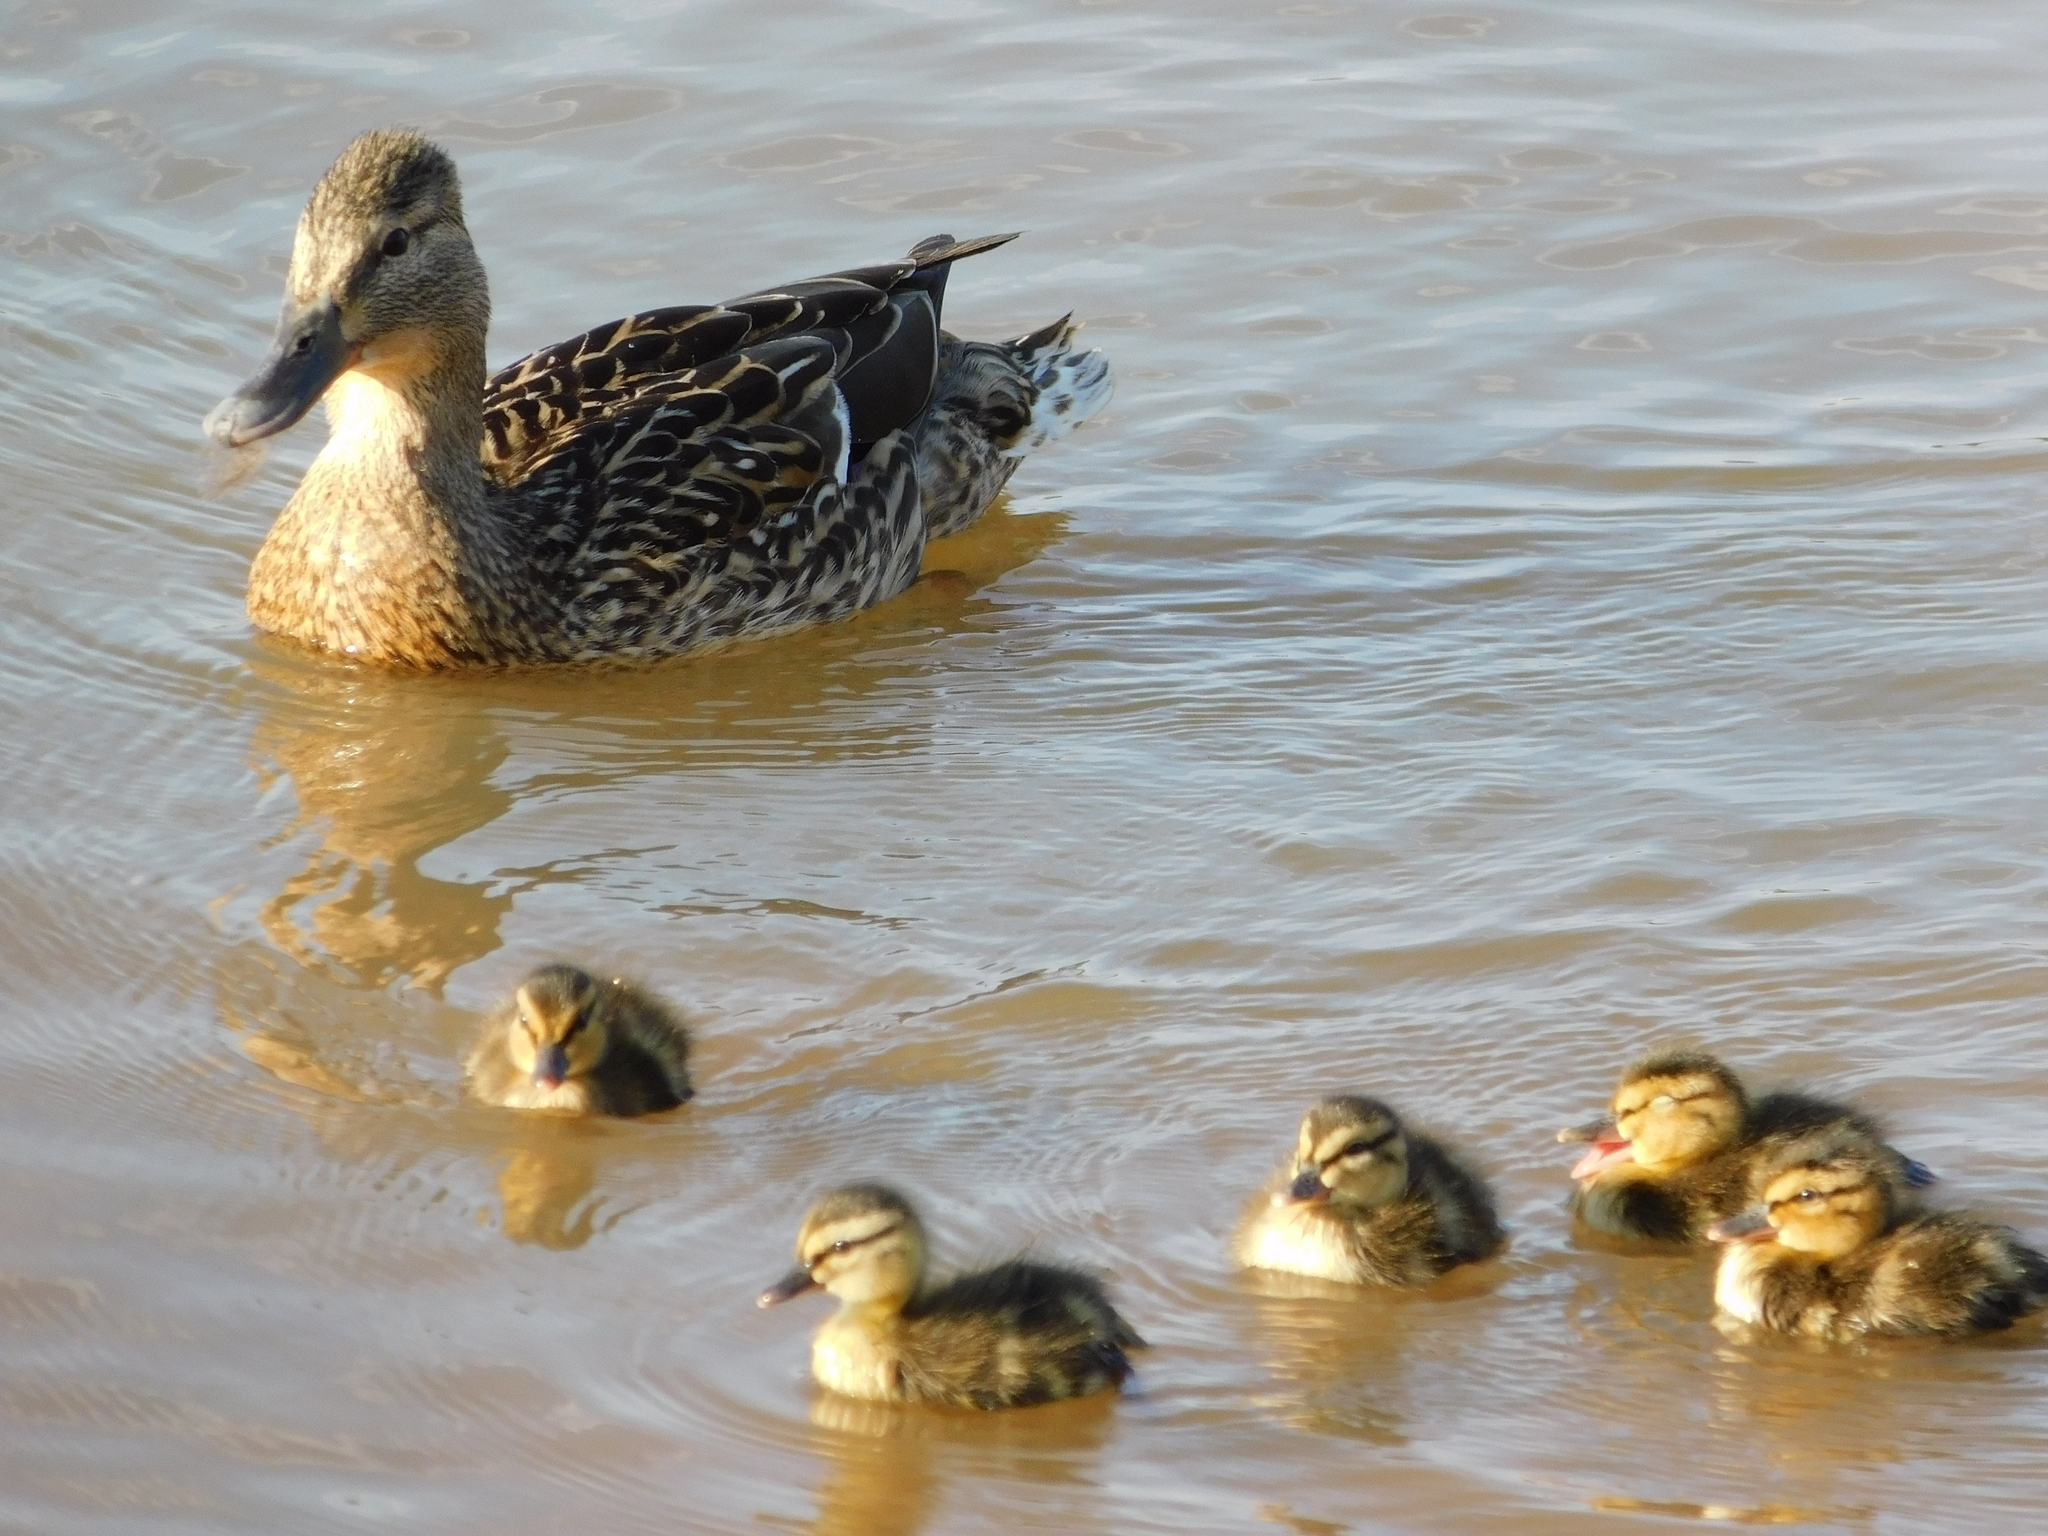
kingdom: Animalia
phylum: Chordata
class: Aves
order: Anseriformes
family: Anatidae
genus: Anas
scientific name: Anas platyrhynchos
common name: Mallard
